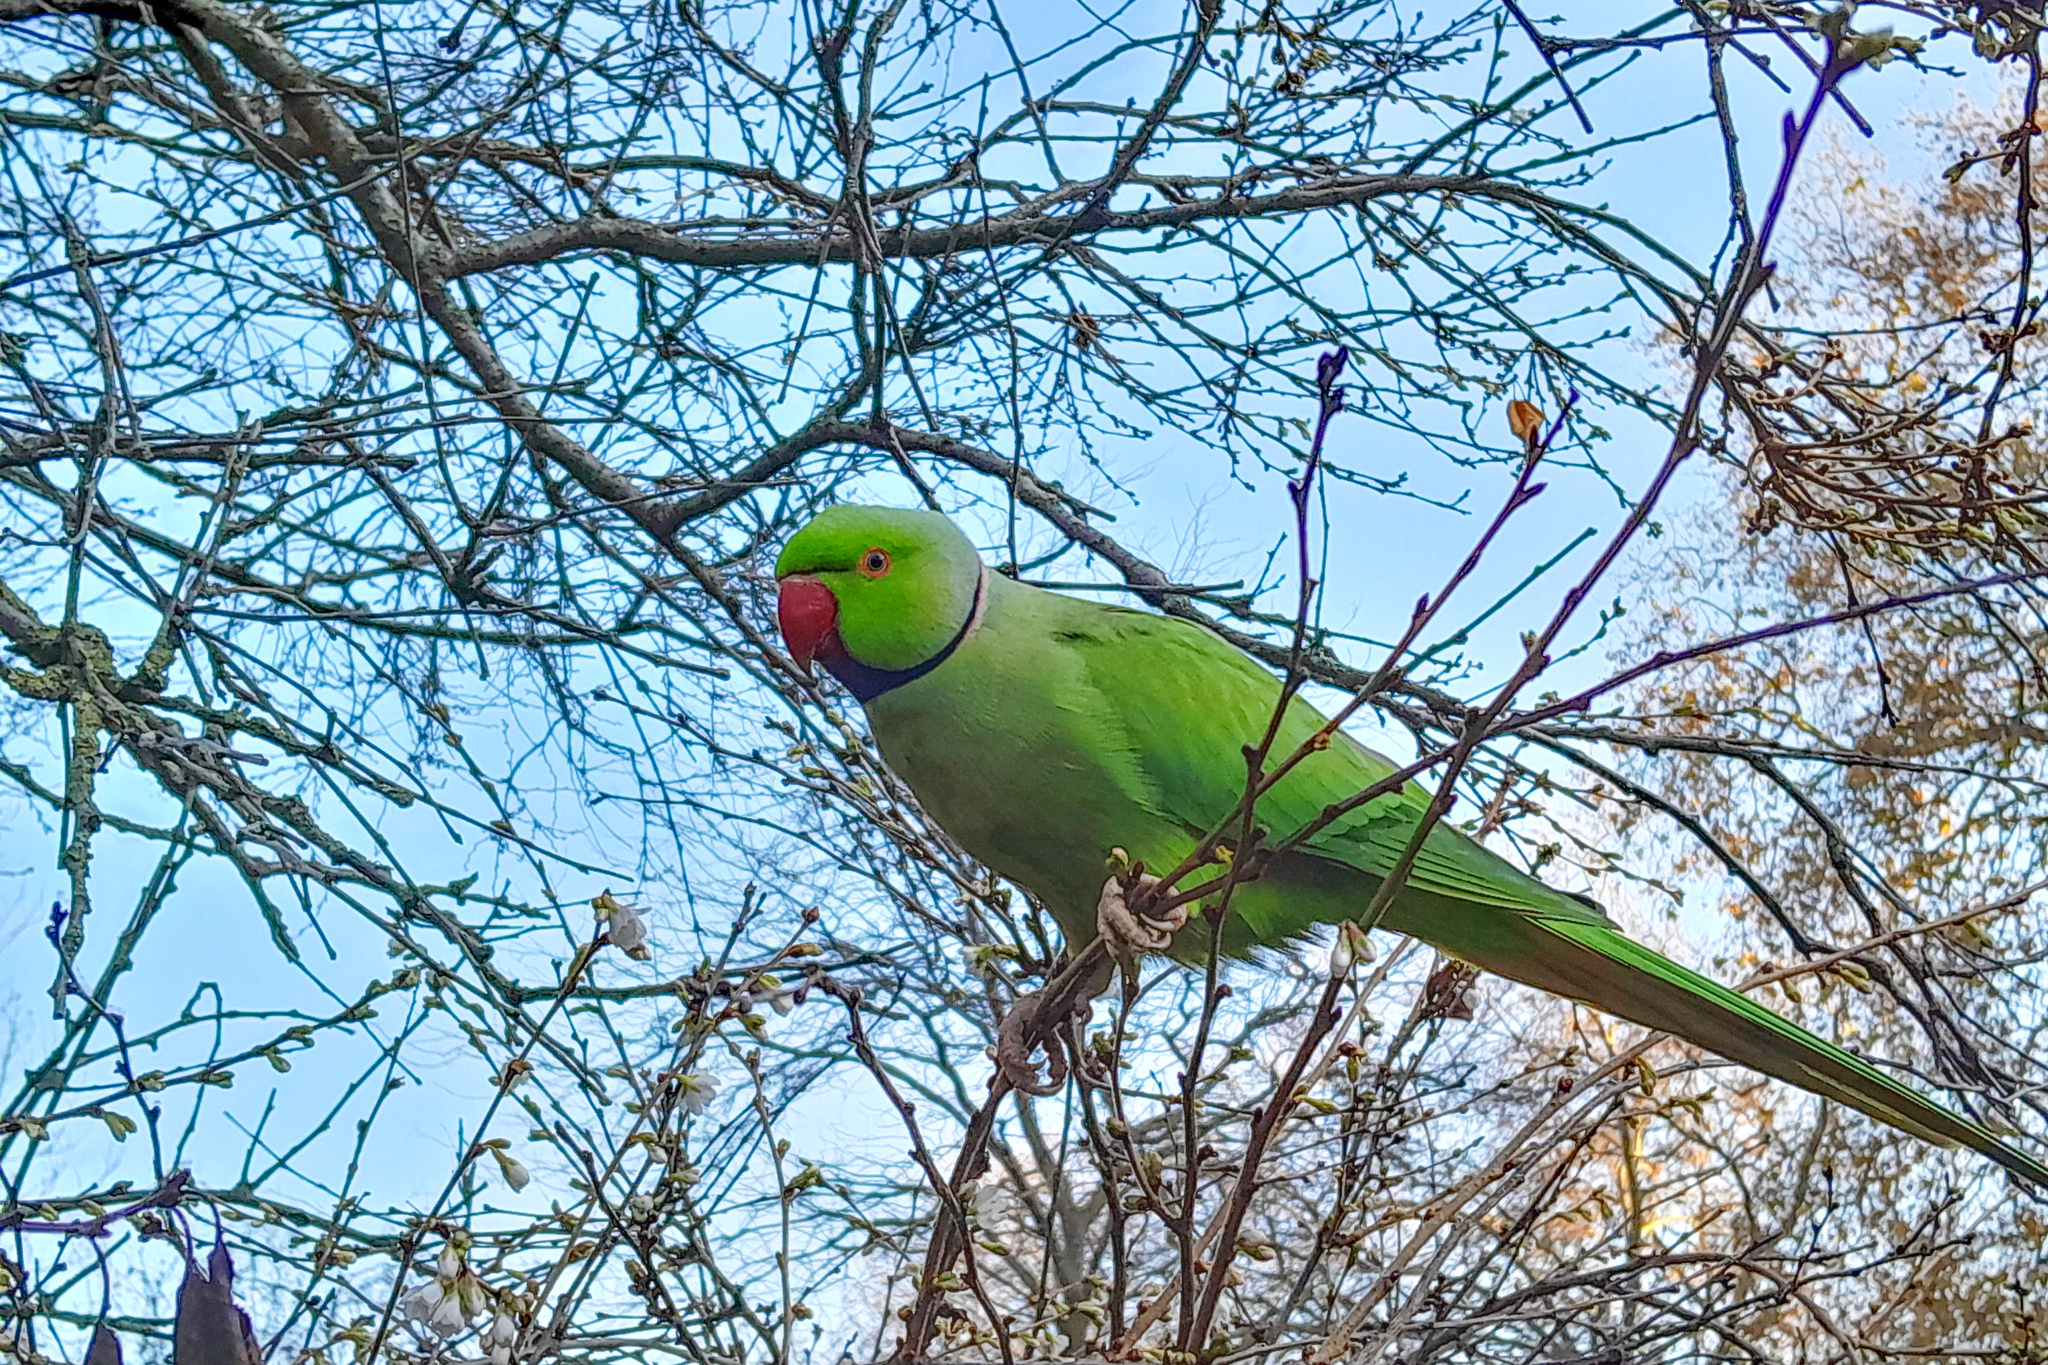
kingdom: Animalia
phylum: Chordata
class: Aves
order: Psittaciformes
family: Psittacidae
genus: Psittacula
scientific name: Psittacula krameri
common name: Rose-ringed parakeet
